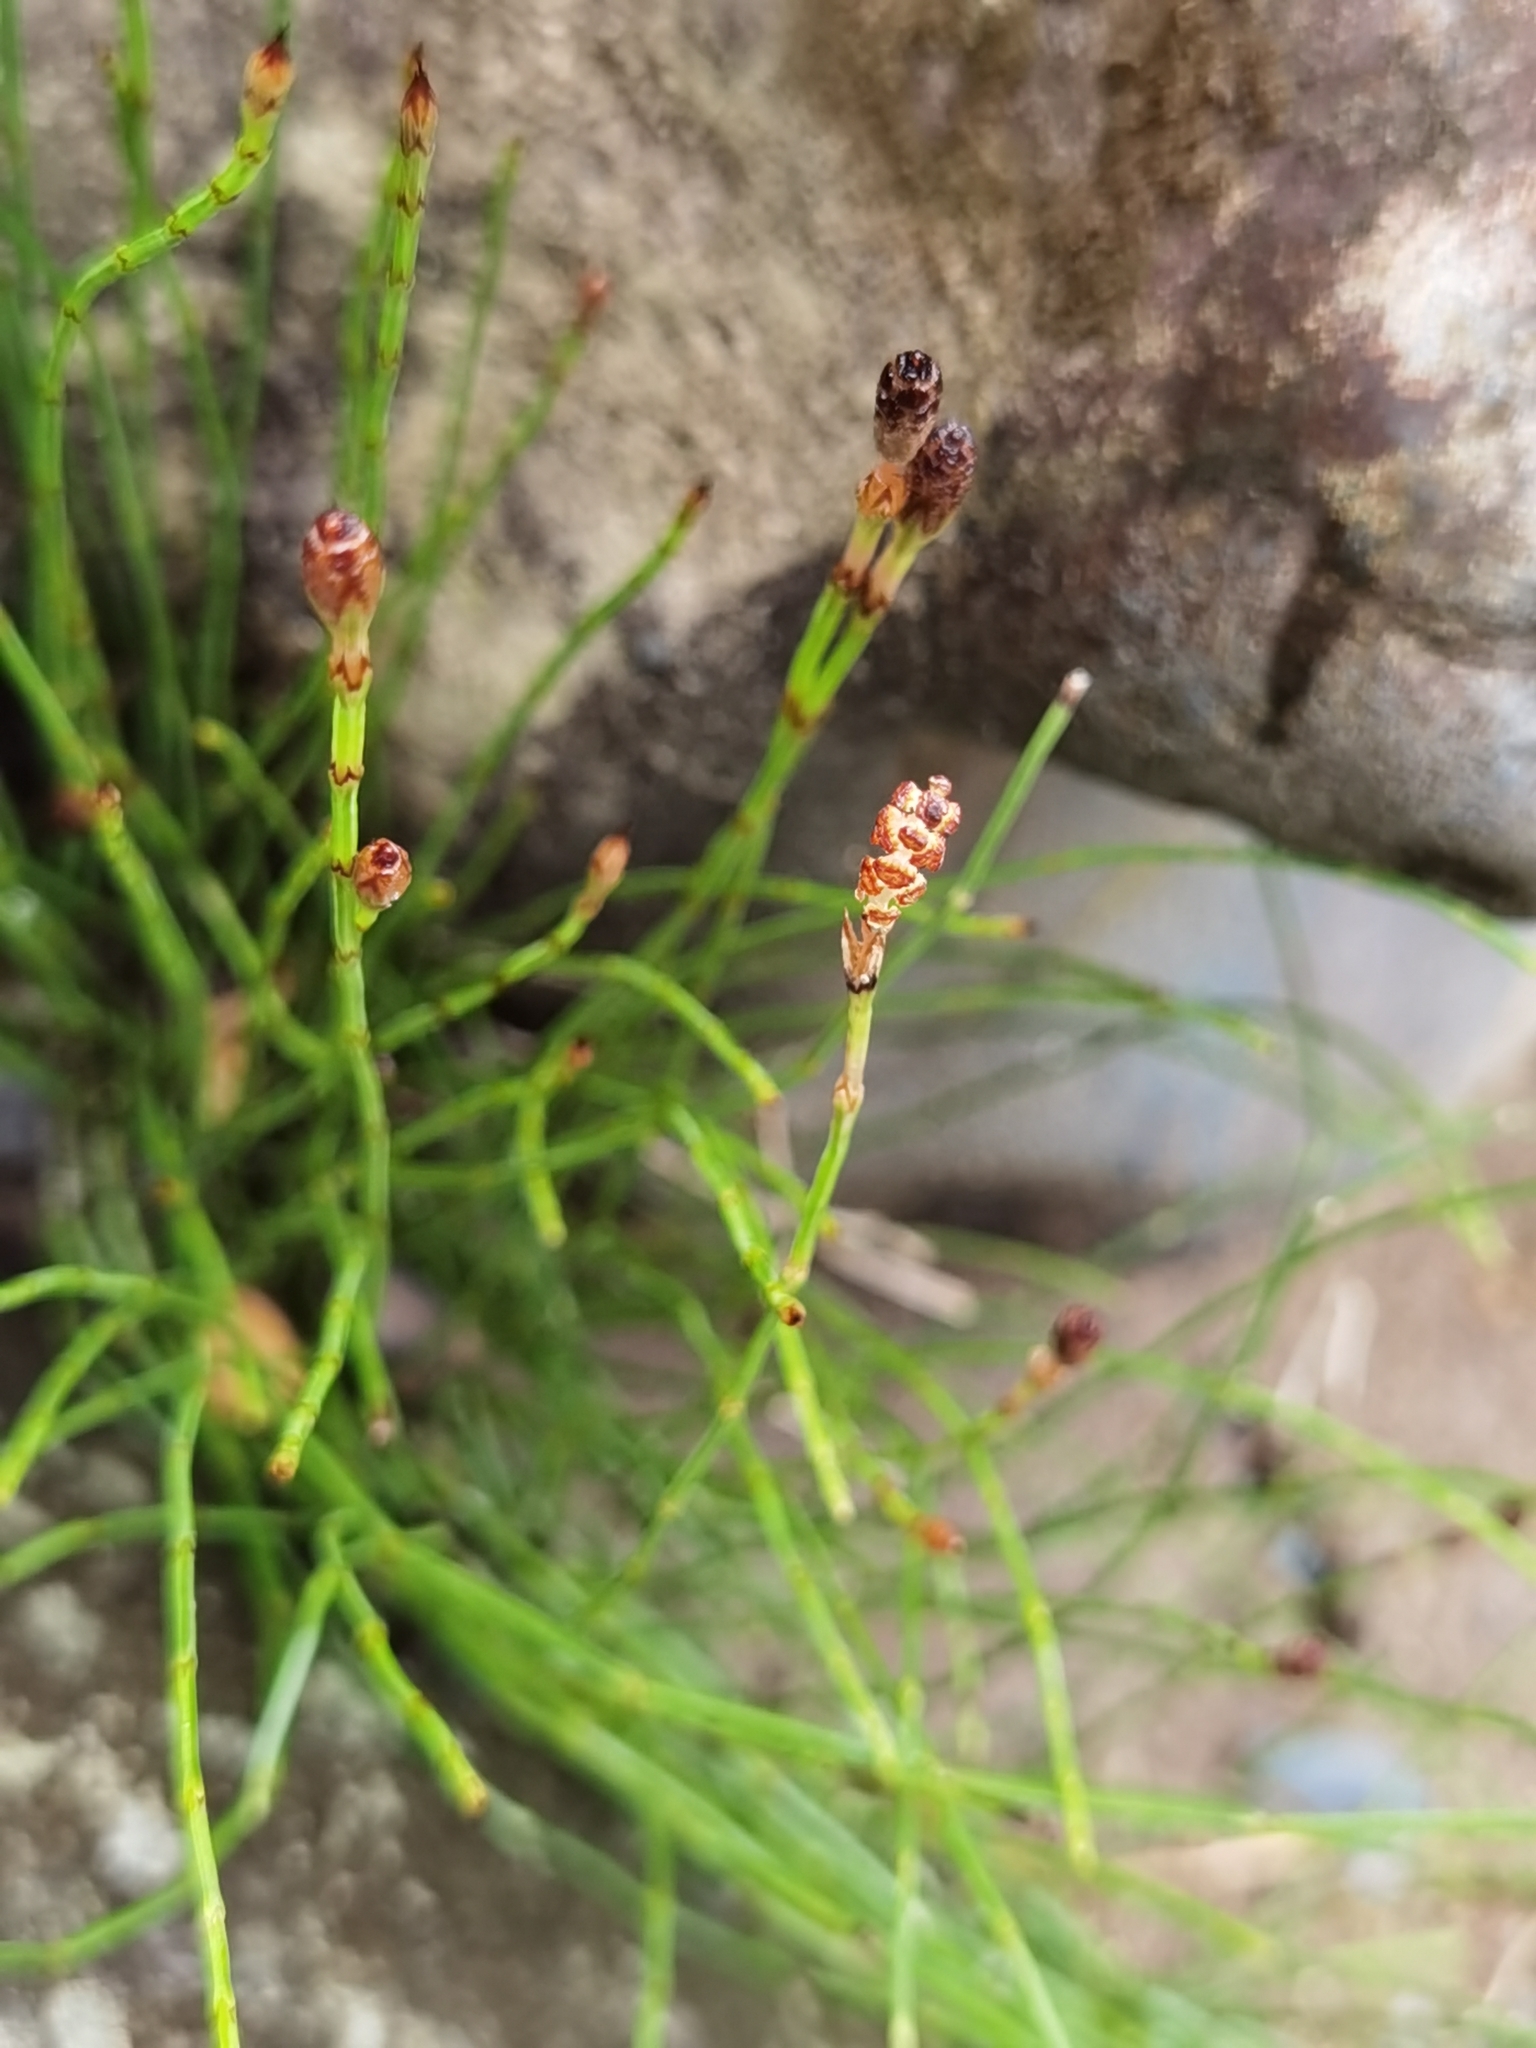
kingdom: Plantae
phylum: Tracheophyta
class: Polypodiopsida
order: Equisetales
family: Equisetaceae
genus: Equisetum
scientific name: Equisetum bogotense
